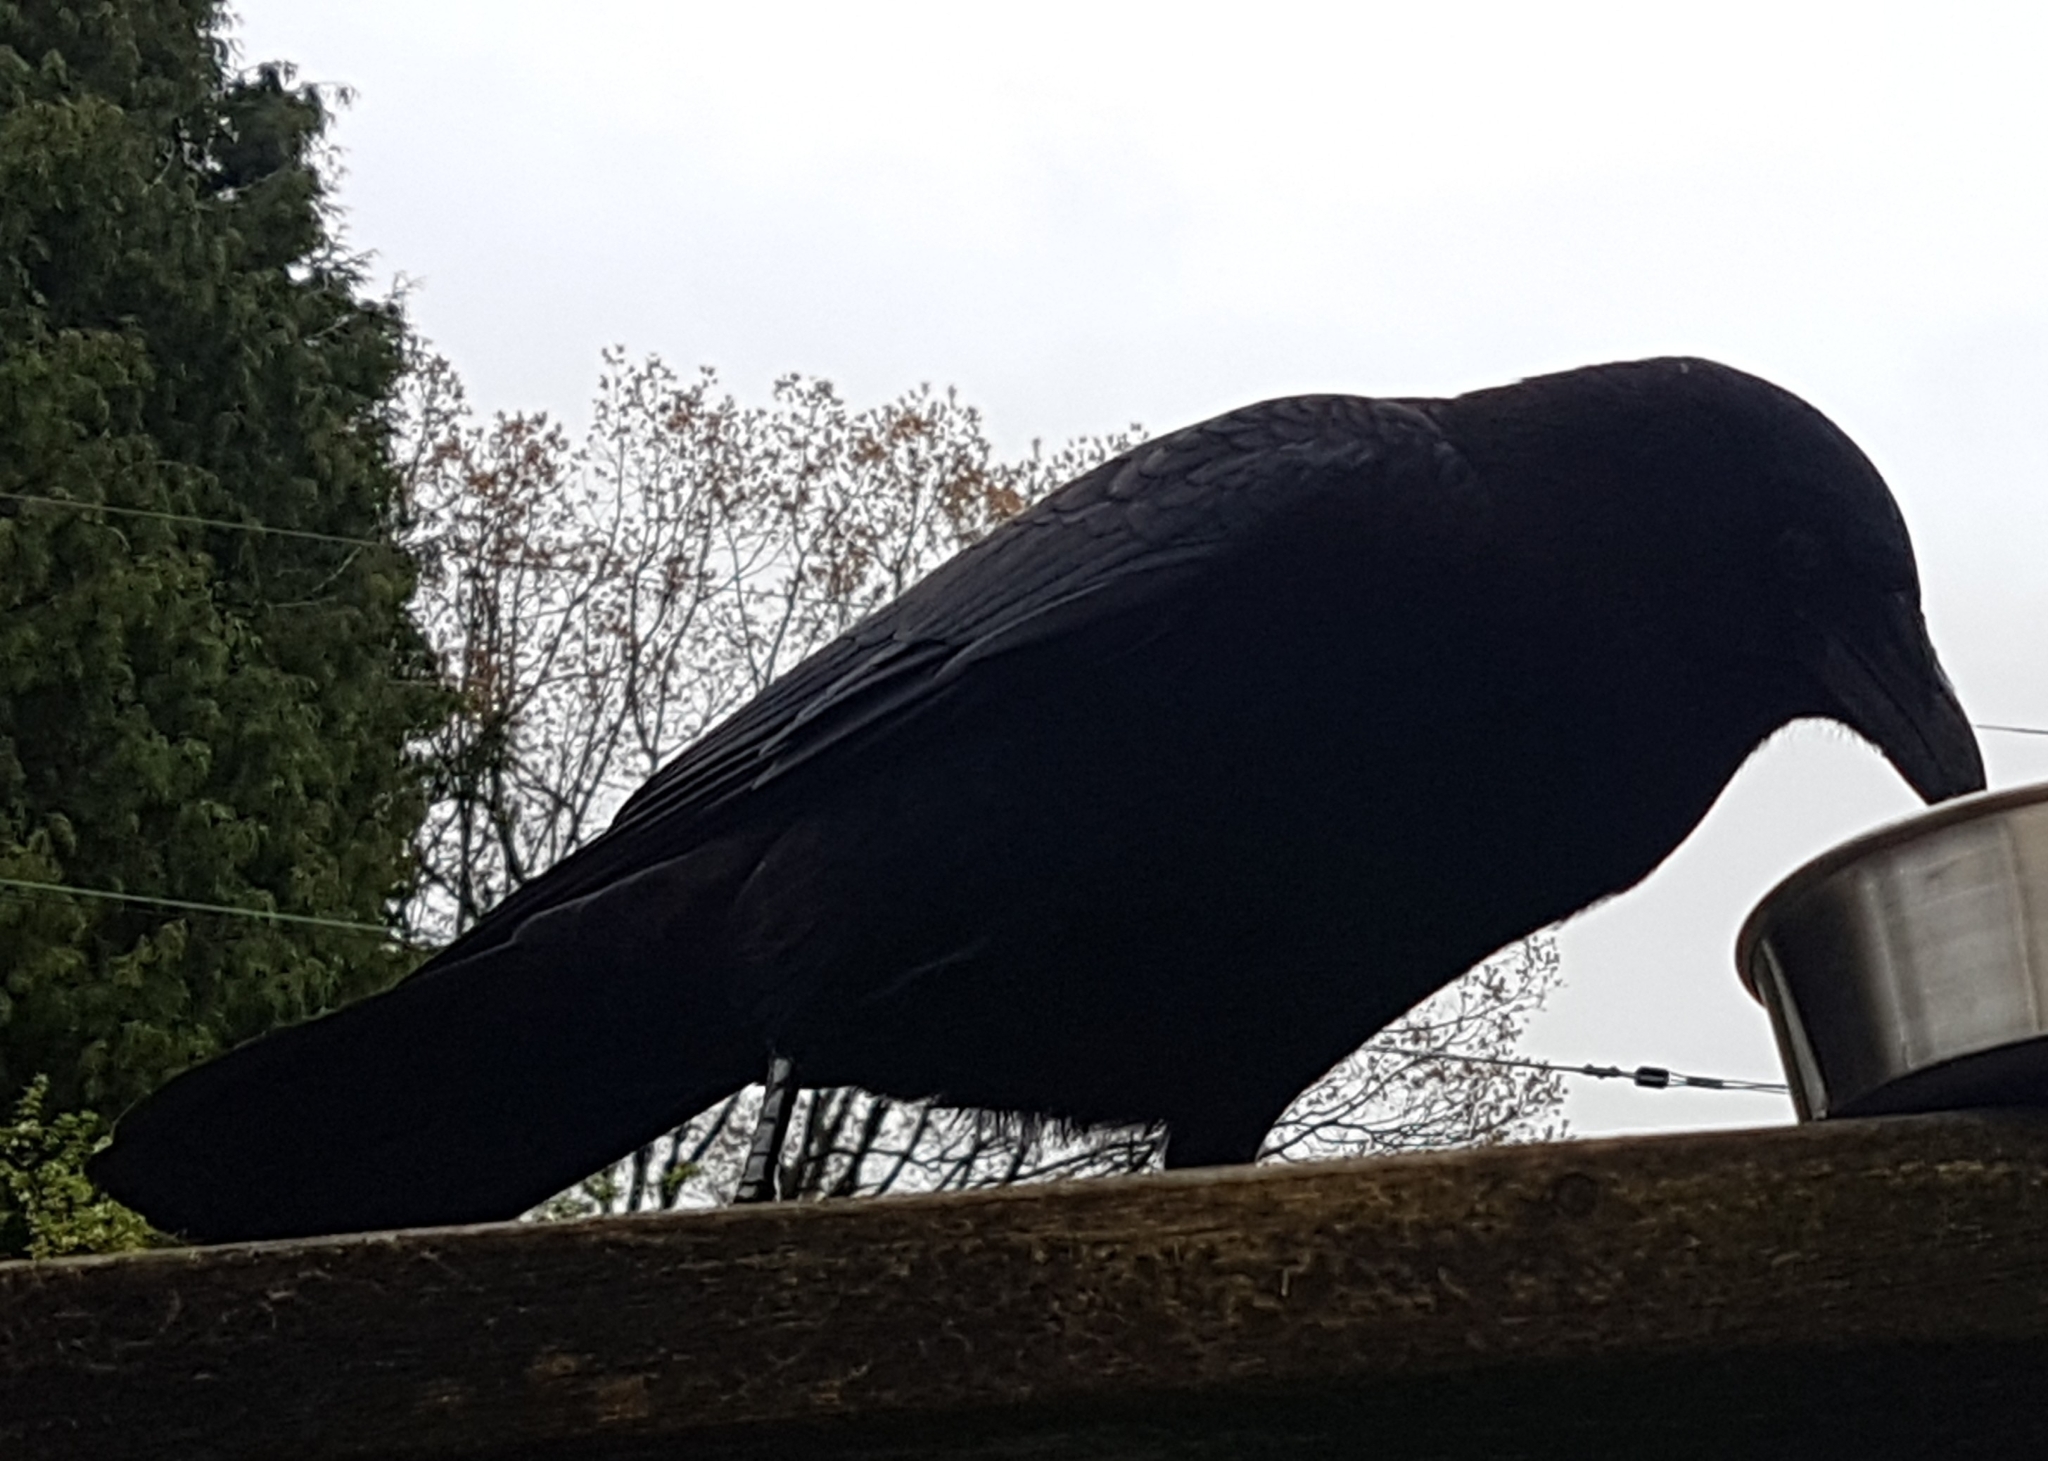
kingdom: Animalia
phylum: Chordata
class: Aves
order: Passeriformes
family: Corvidae
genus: Corvus
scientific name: Corvus brachyrhynchos
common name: American crow
